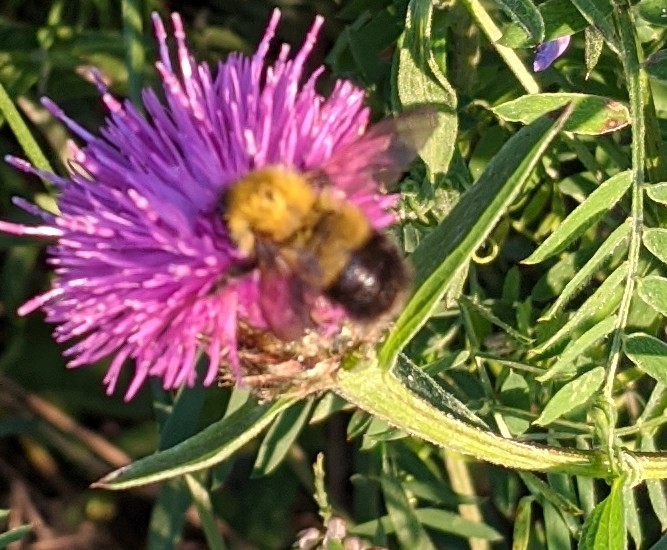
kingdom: Animalia
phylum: Arthropoda
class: Insecta
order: Hymenoptera
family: Apidae
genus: Bombus
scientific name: Bombus perplexus
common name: Confusing bumble bee
